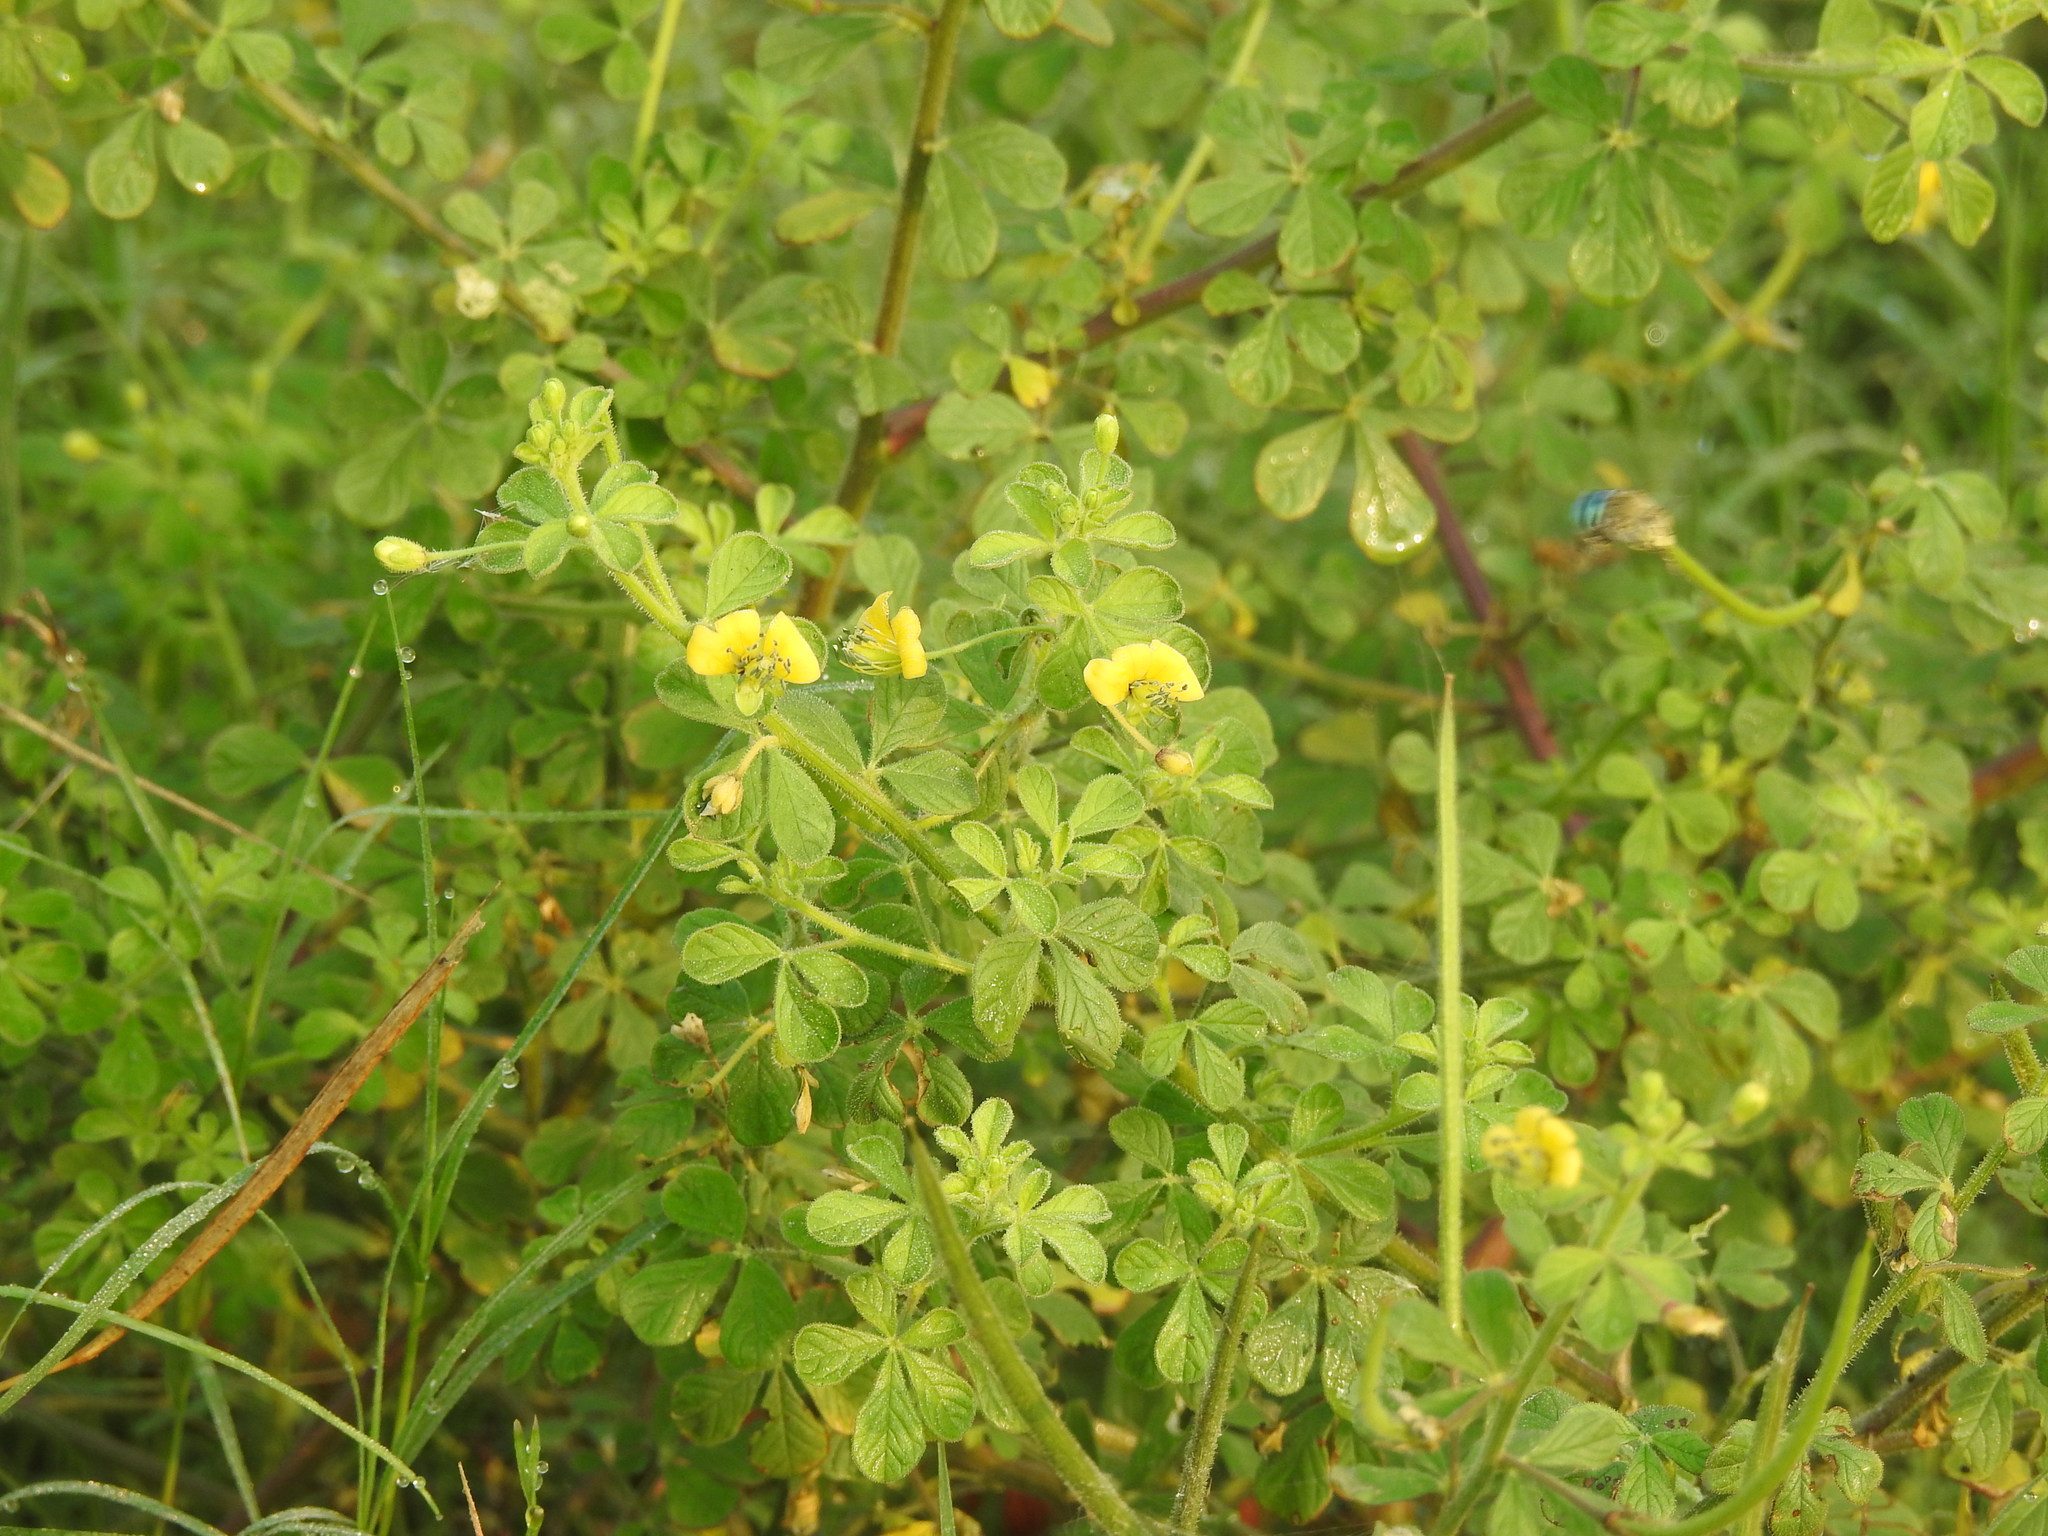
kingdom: Plantae
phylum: Tracheophyta
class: Magnoliopsida
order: Brassicales
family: Cleomaceae
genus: Arivela
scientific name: Arivela viscosa
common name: Asian spiderflower
